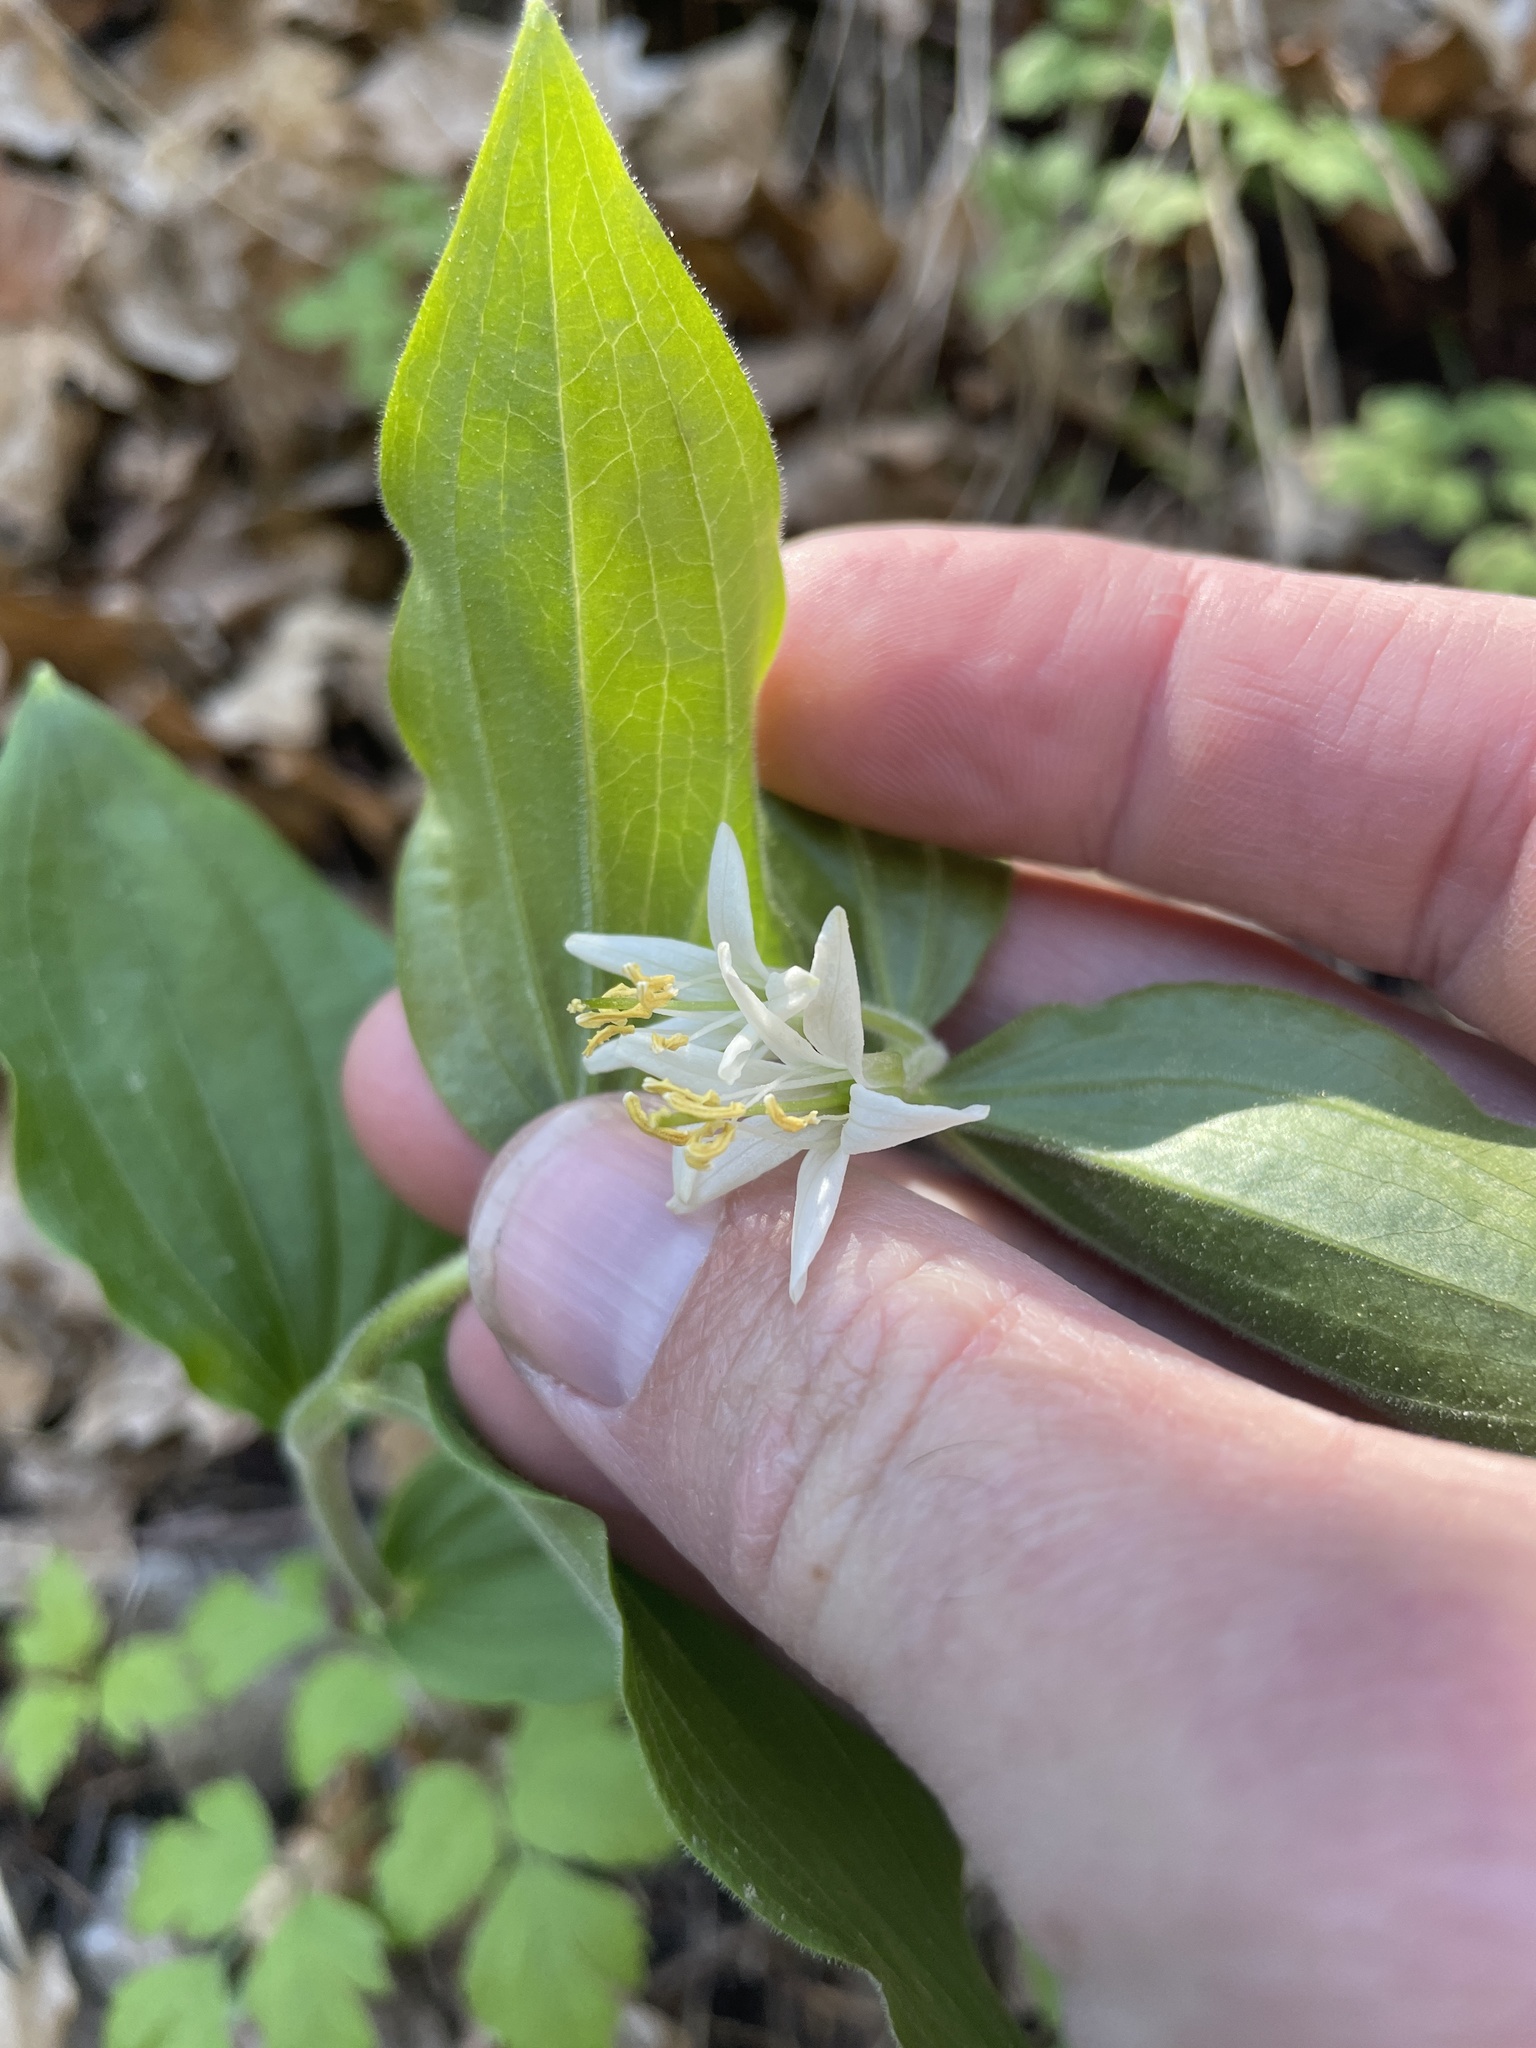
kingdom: Plantae
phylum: Tracheophyta
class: Liliopsida
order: Liliales
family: Liliaceae
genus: Prosartes
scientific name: Prosartes trachycarpa
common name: Rough-fruit fairy-bells
